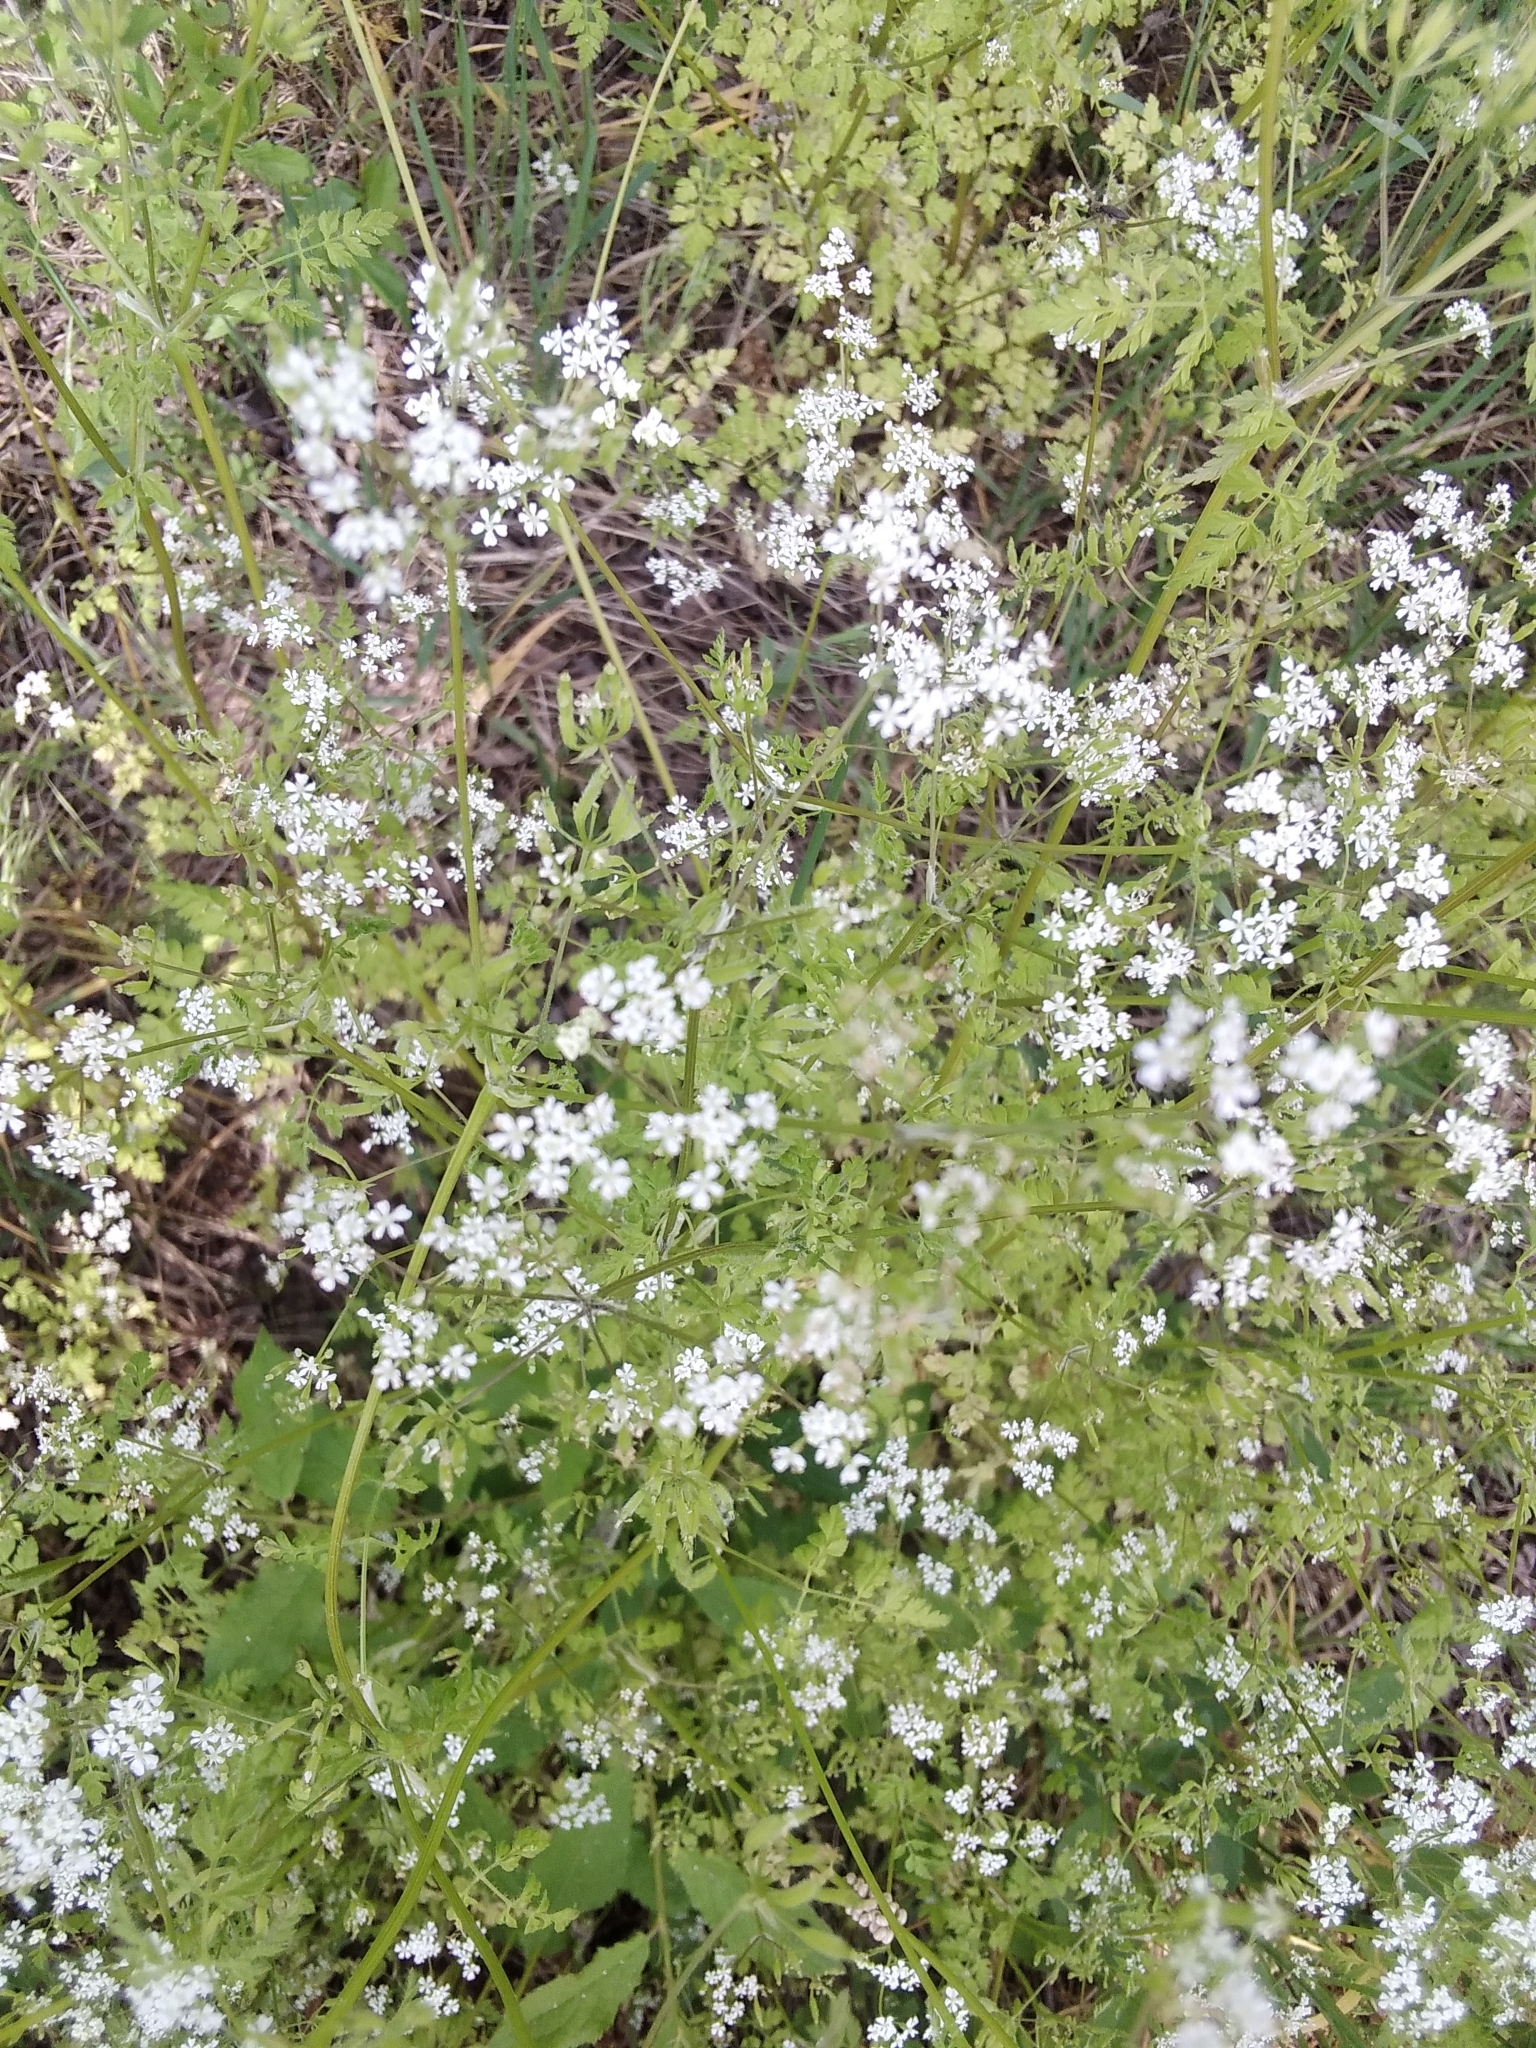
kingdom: Plantae
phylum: Tracheophyta
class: Magnoliopsida
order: Apiales
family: Apiaceae
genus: Anthriscus
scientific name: Anthriscus cerefolium
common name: Garden chervil
